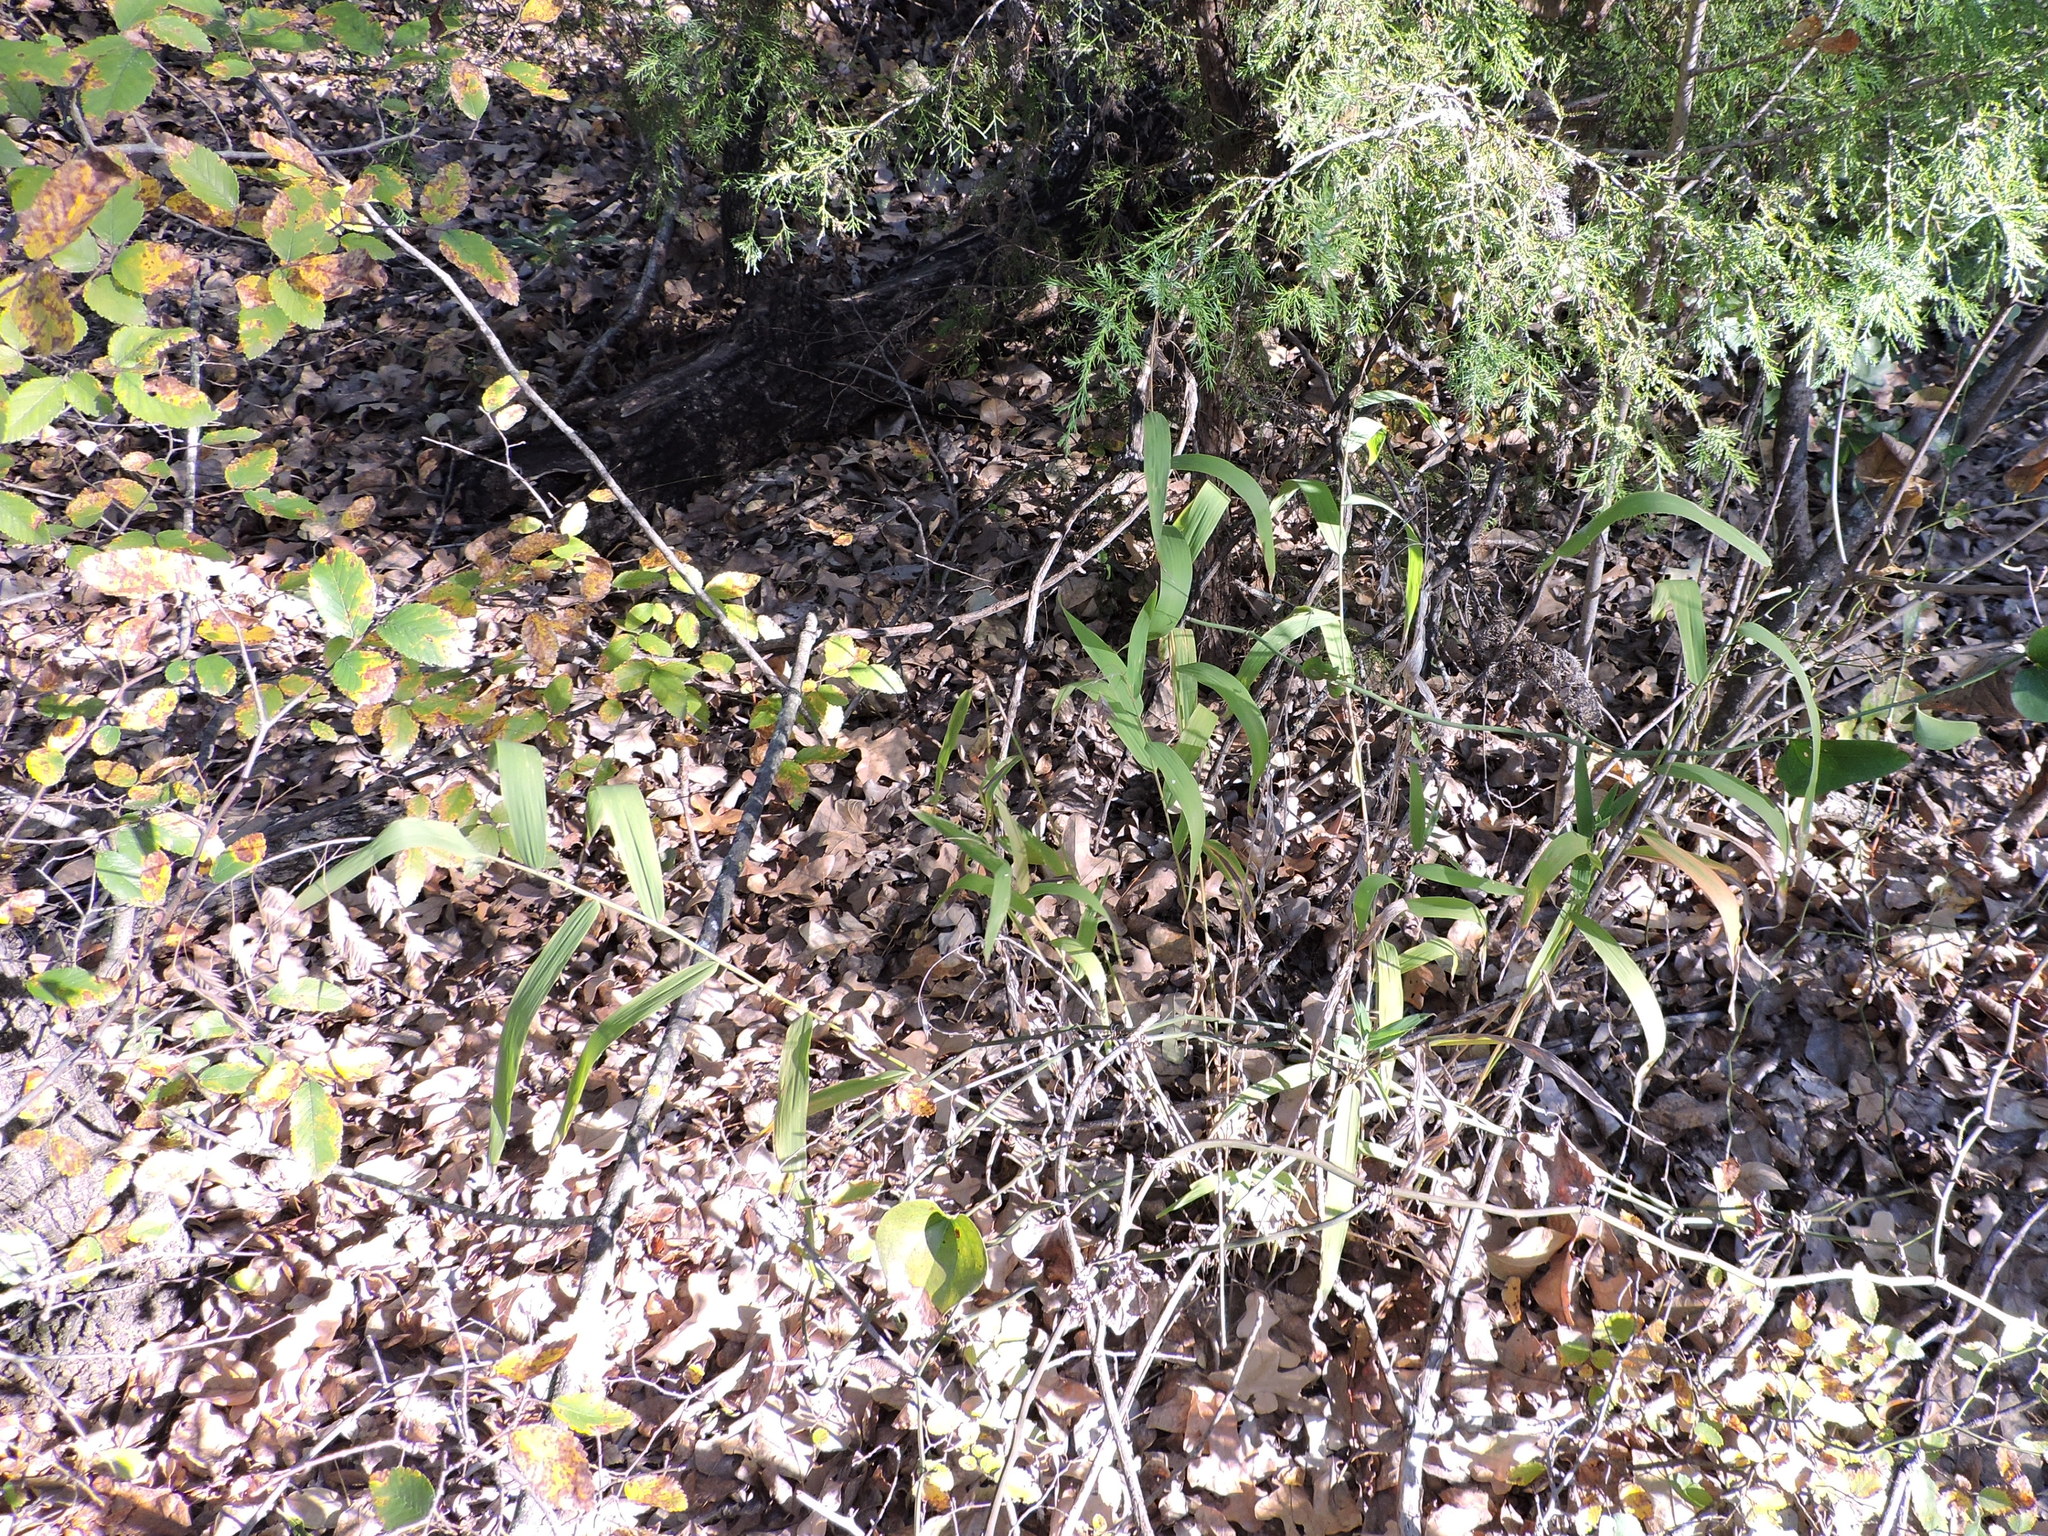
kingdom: Plantae
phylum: Tracheophyta
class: Liliopsida
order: Poales
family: Poaceae
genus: Chasmanthium
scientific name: Chasmanthium latifolium
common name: Broad-leaved chasmanthium
